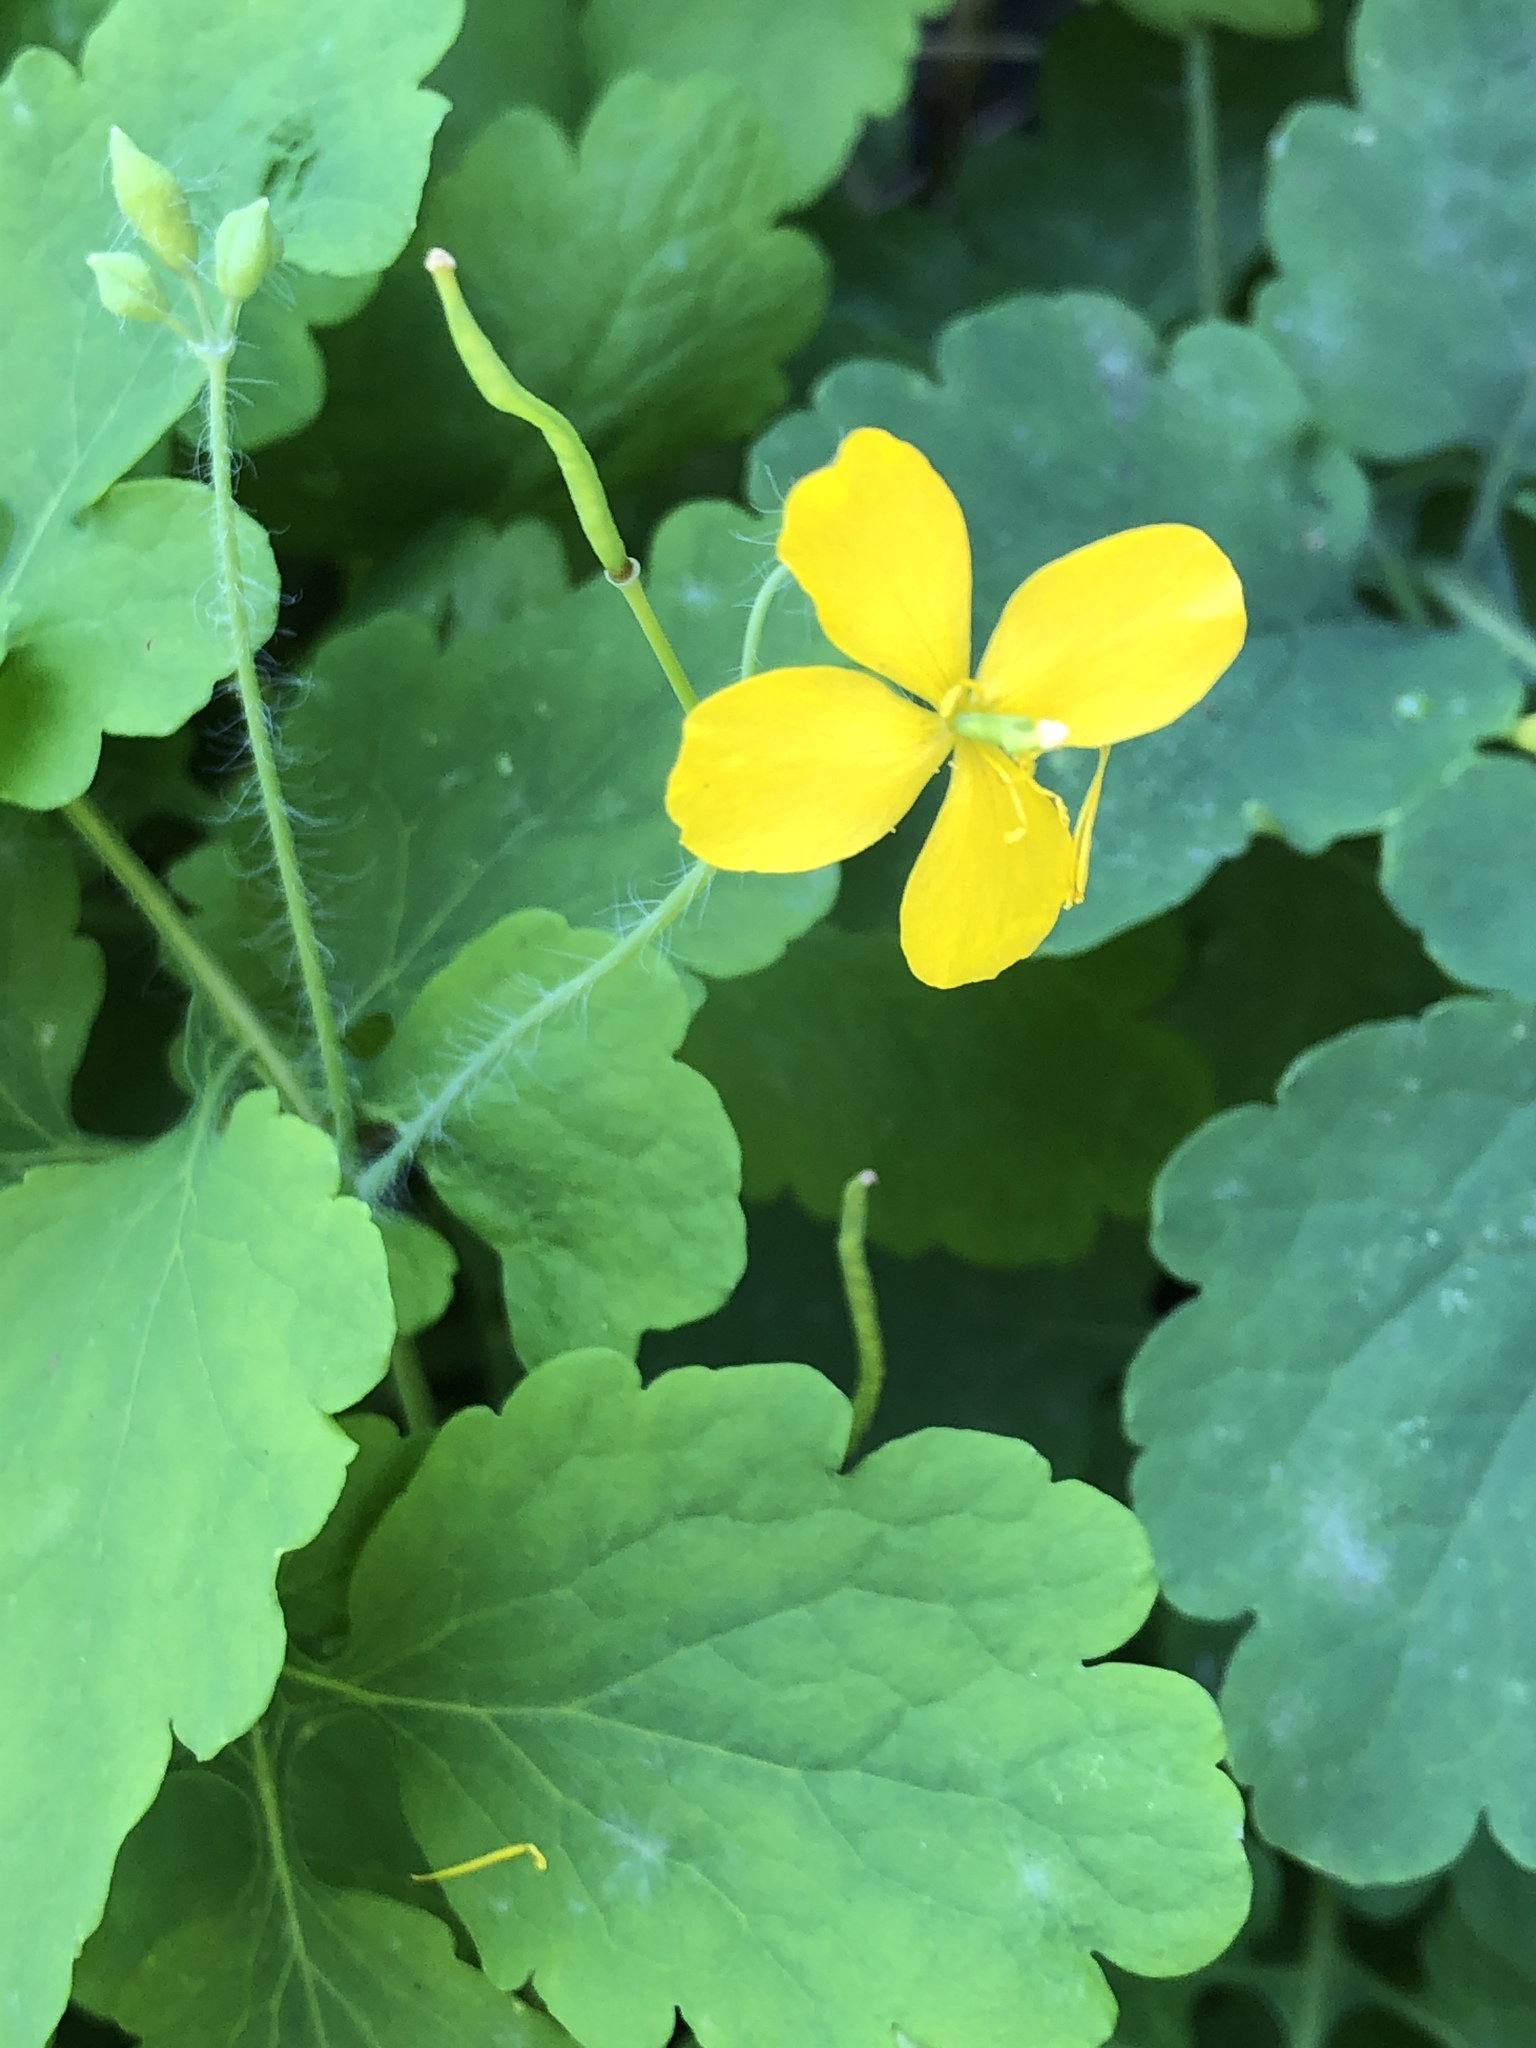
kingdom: Plantae
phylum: Tracheophyta
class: Magnoliopsida
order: Ranunculales
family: Papaveraceae
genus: Chelidonium
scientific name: Chelidonium majus
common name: Greater celandine
